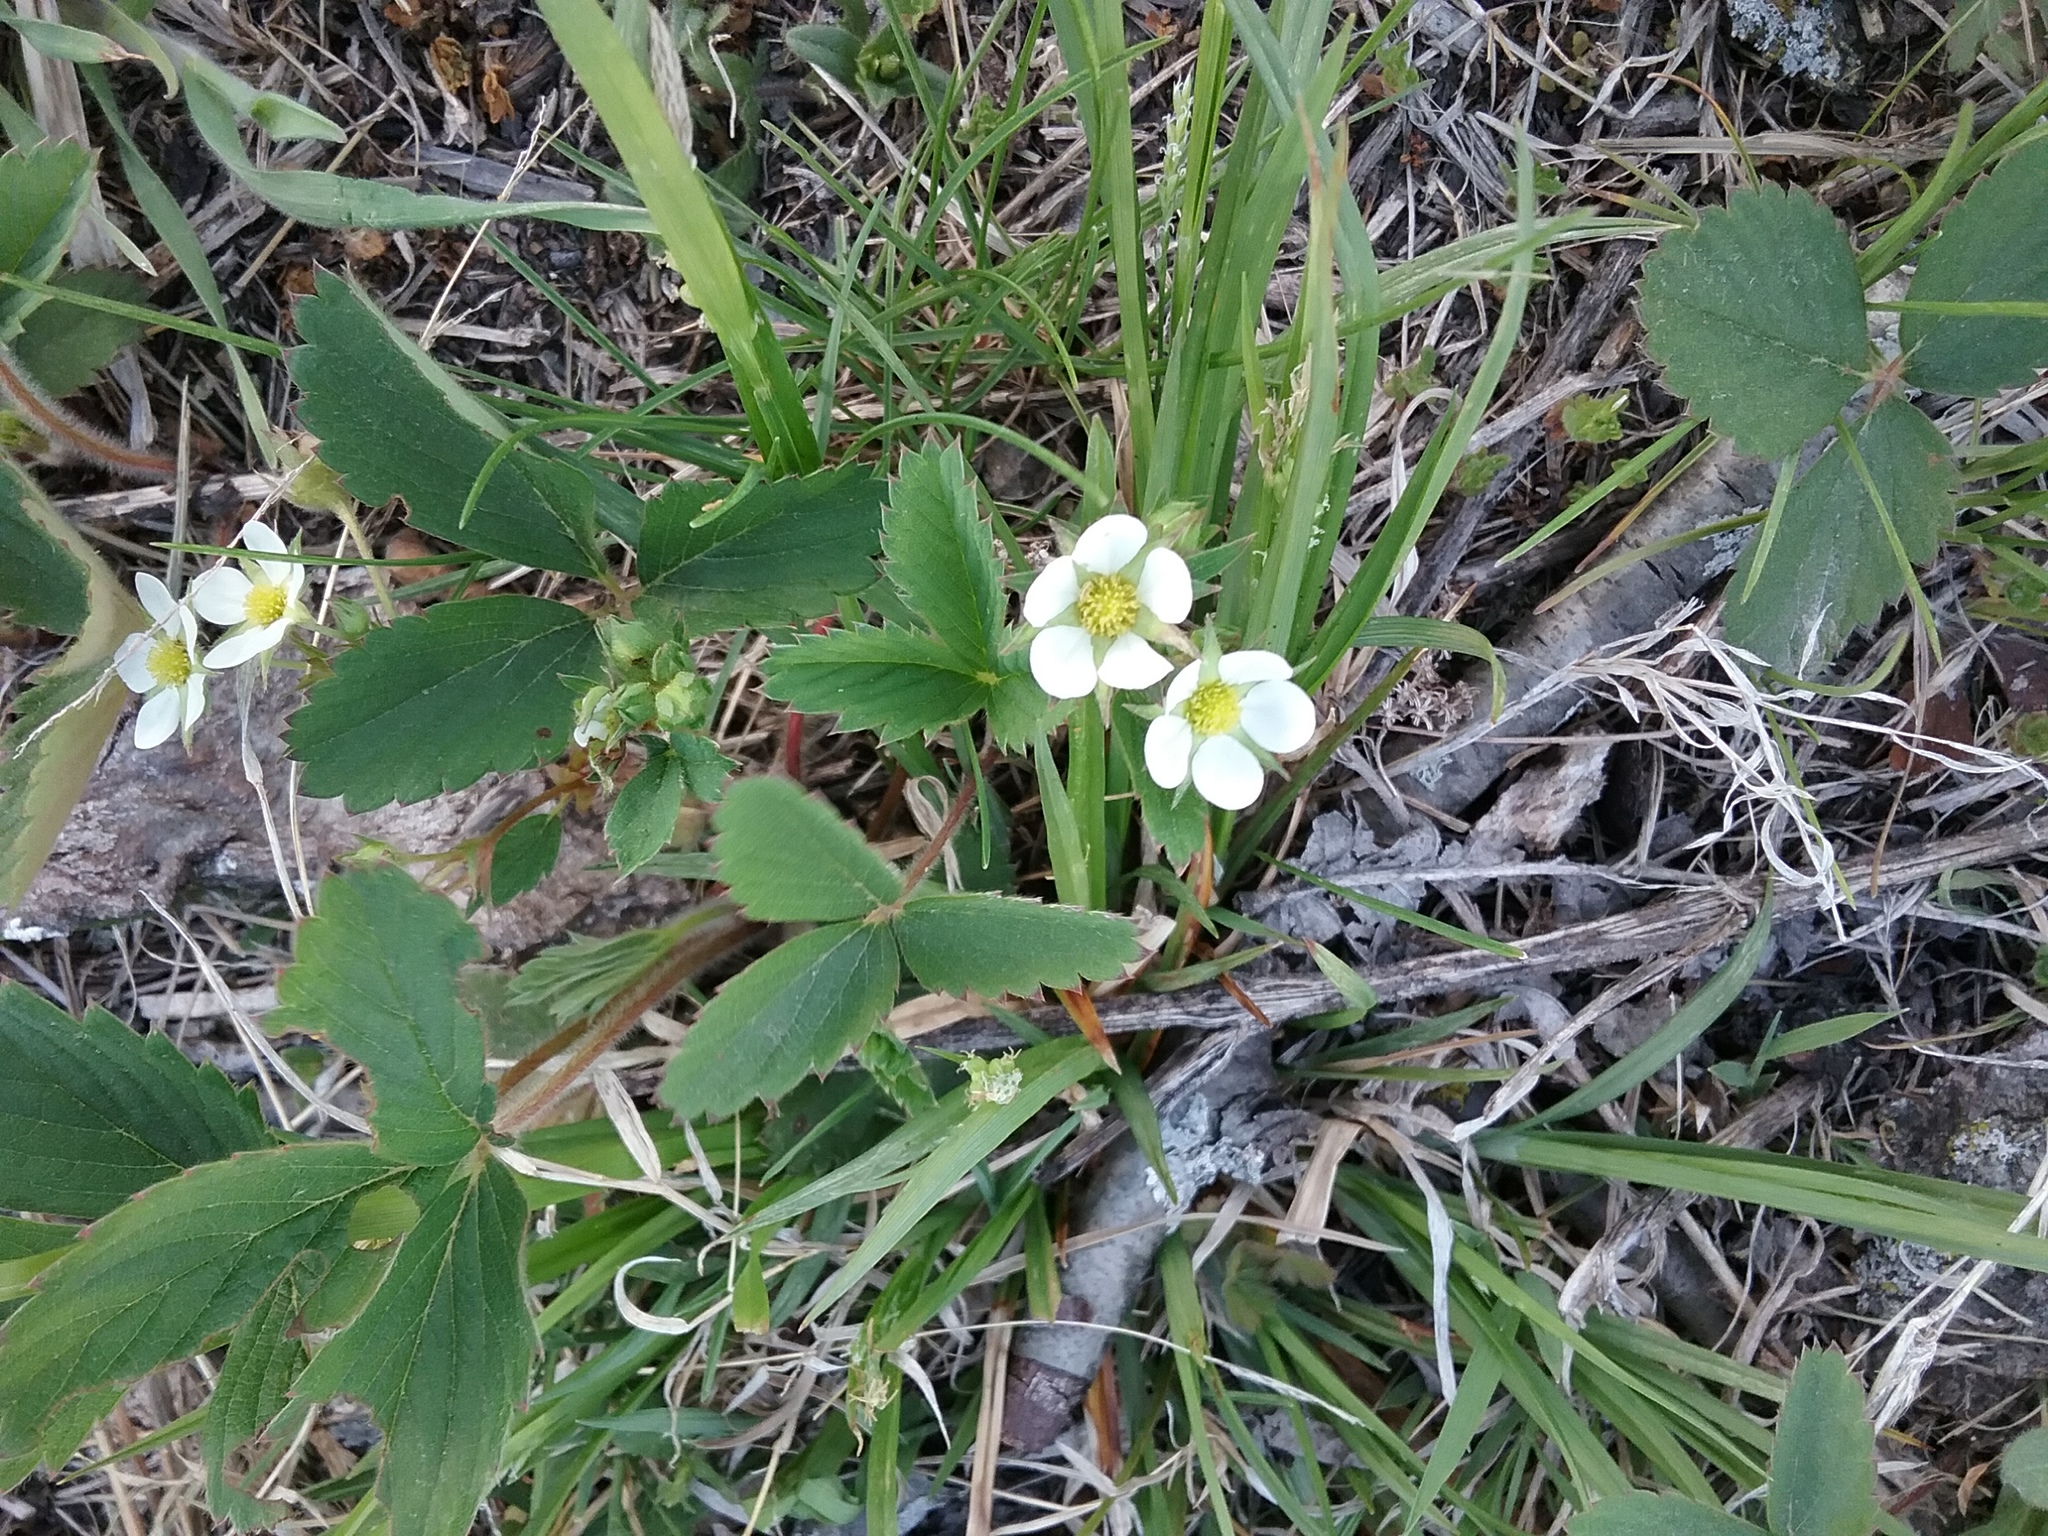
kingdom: Plantae
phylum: Tracheophyta
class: Magnoliopsida
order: Rosales
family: Rosaceae
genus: Fragaria
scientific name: Fragaria virginiana
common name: Thickleaved wild strawberry
